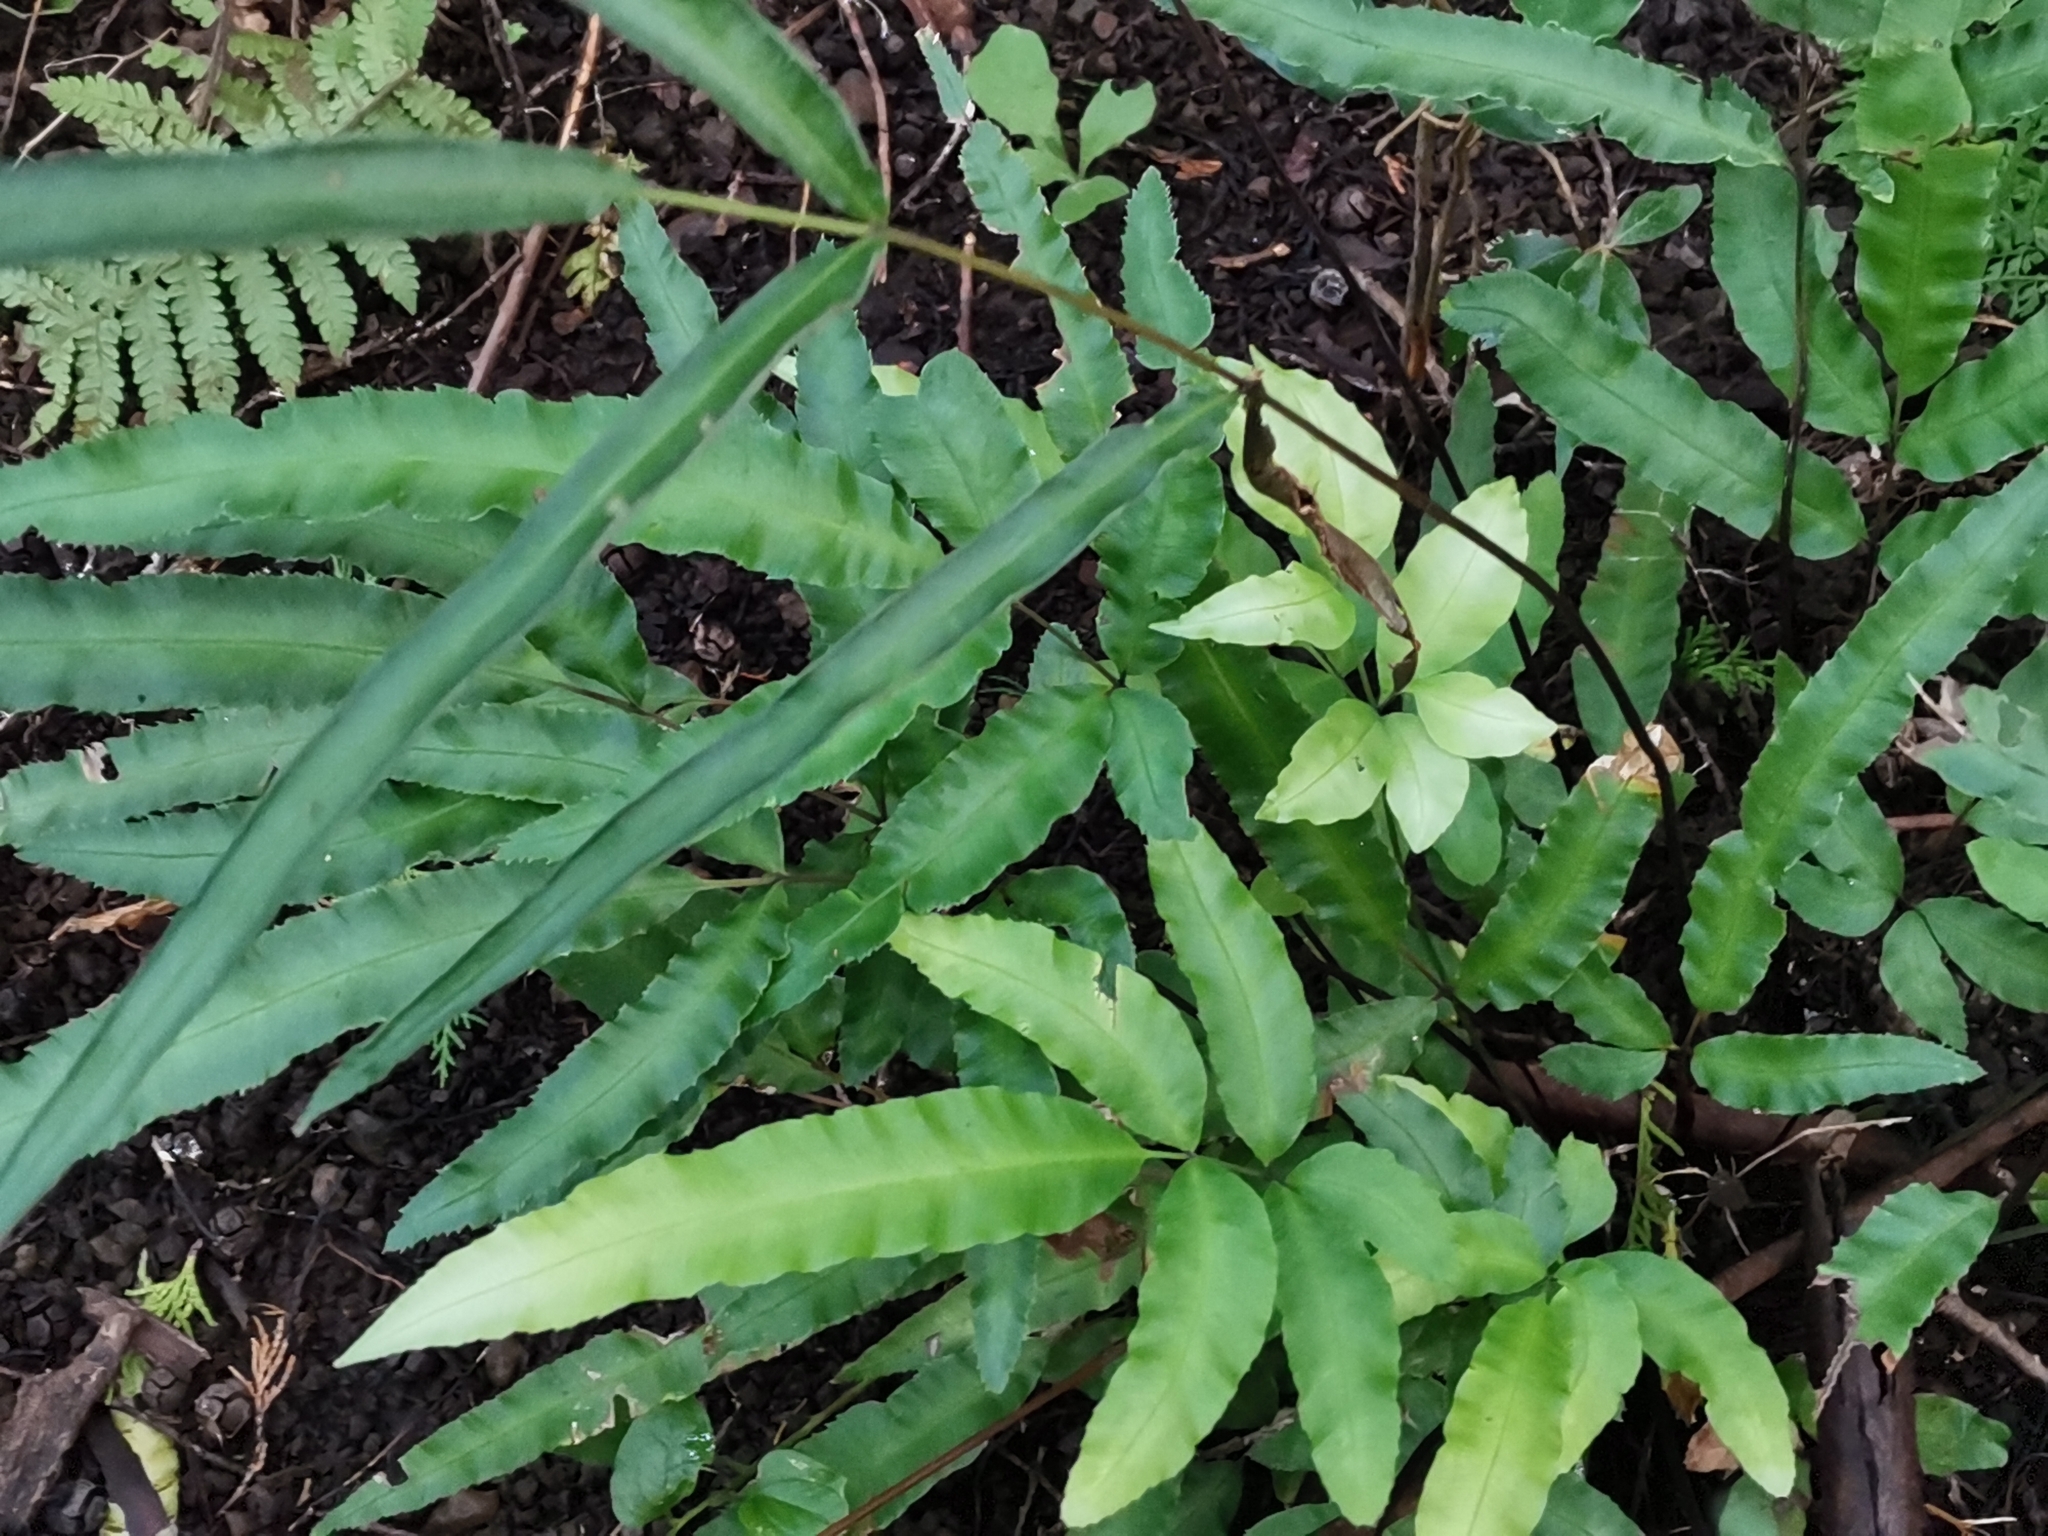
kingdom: Plantae
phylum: Tracheophyta
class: Polypodiopsida
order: Polypodiales
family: Pteridaceae
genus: Pteris
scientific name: Pteris parkeri
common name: Cretan brake
